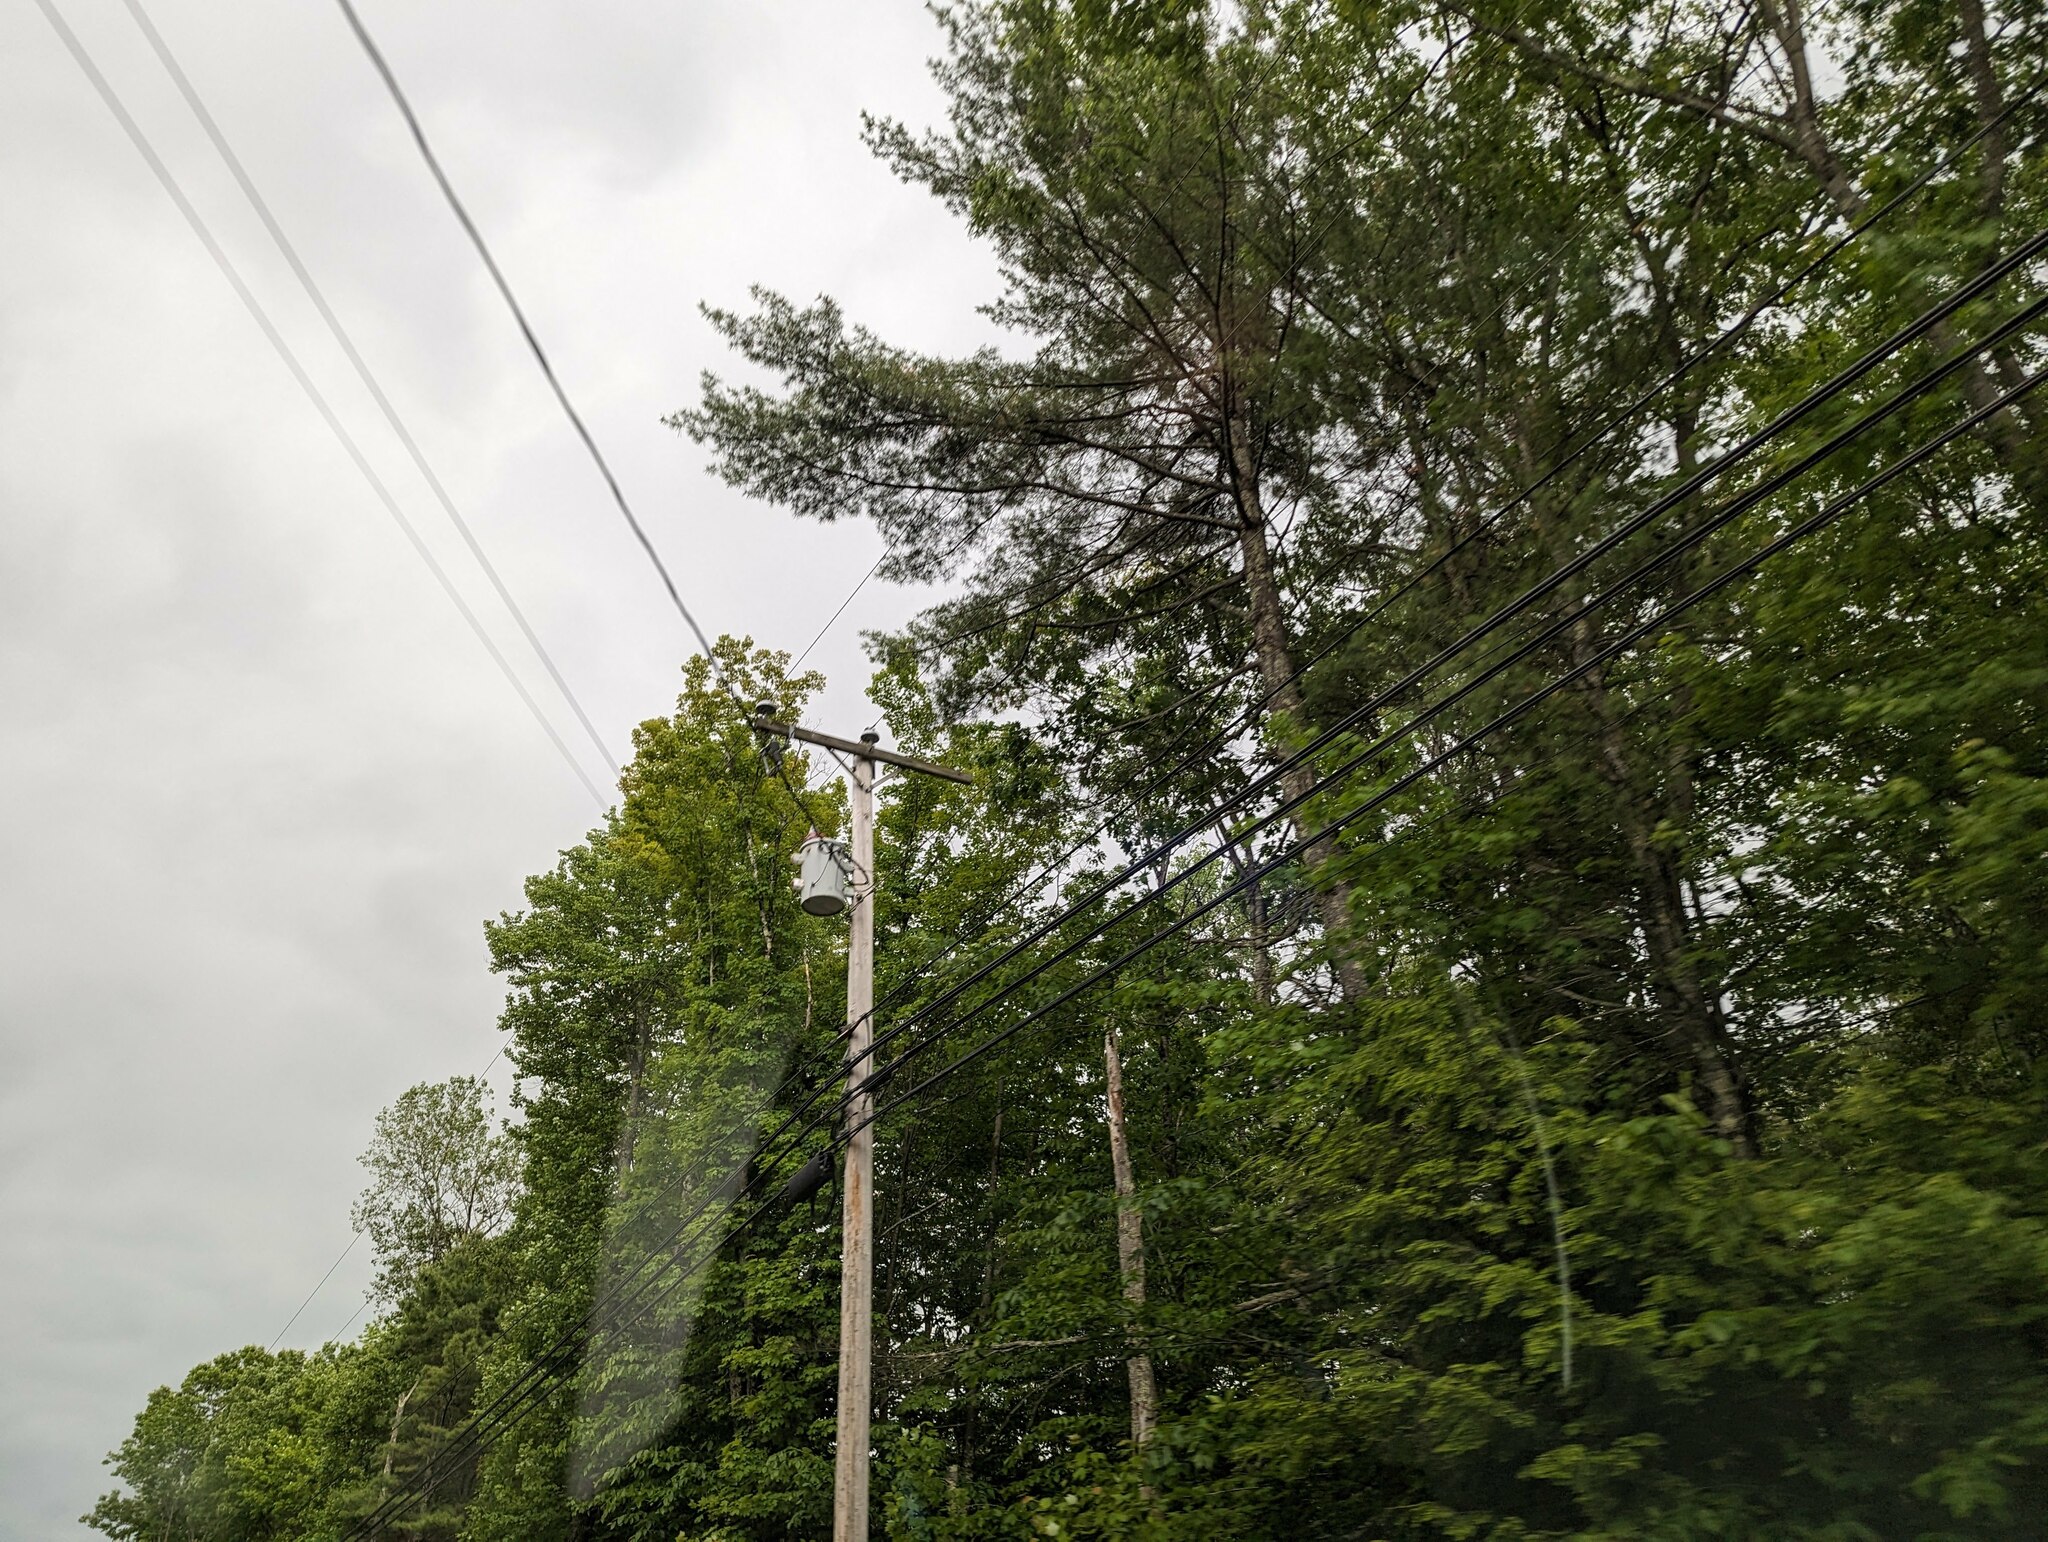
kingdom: Plantae
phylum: Tracheophyta
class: Pinopsida
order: Pinales
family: Pinaceae
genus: Pinus
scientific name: Pinus strobus
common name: Weymouth pine
